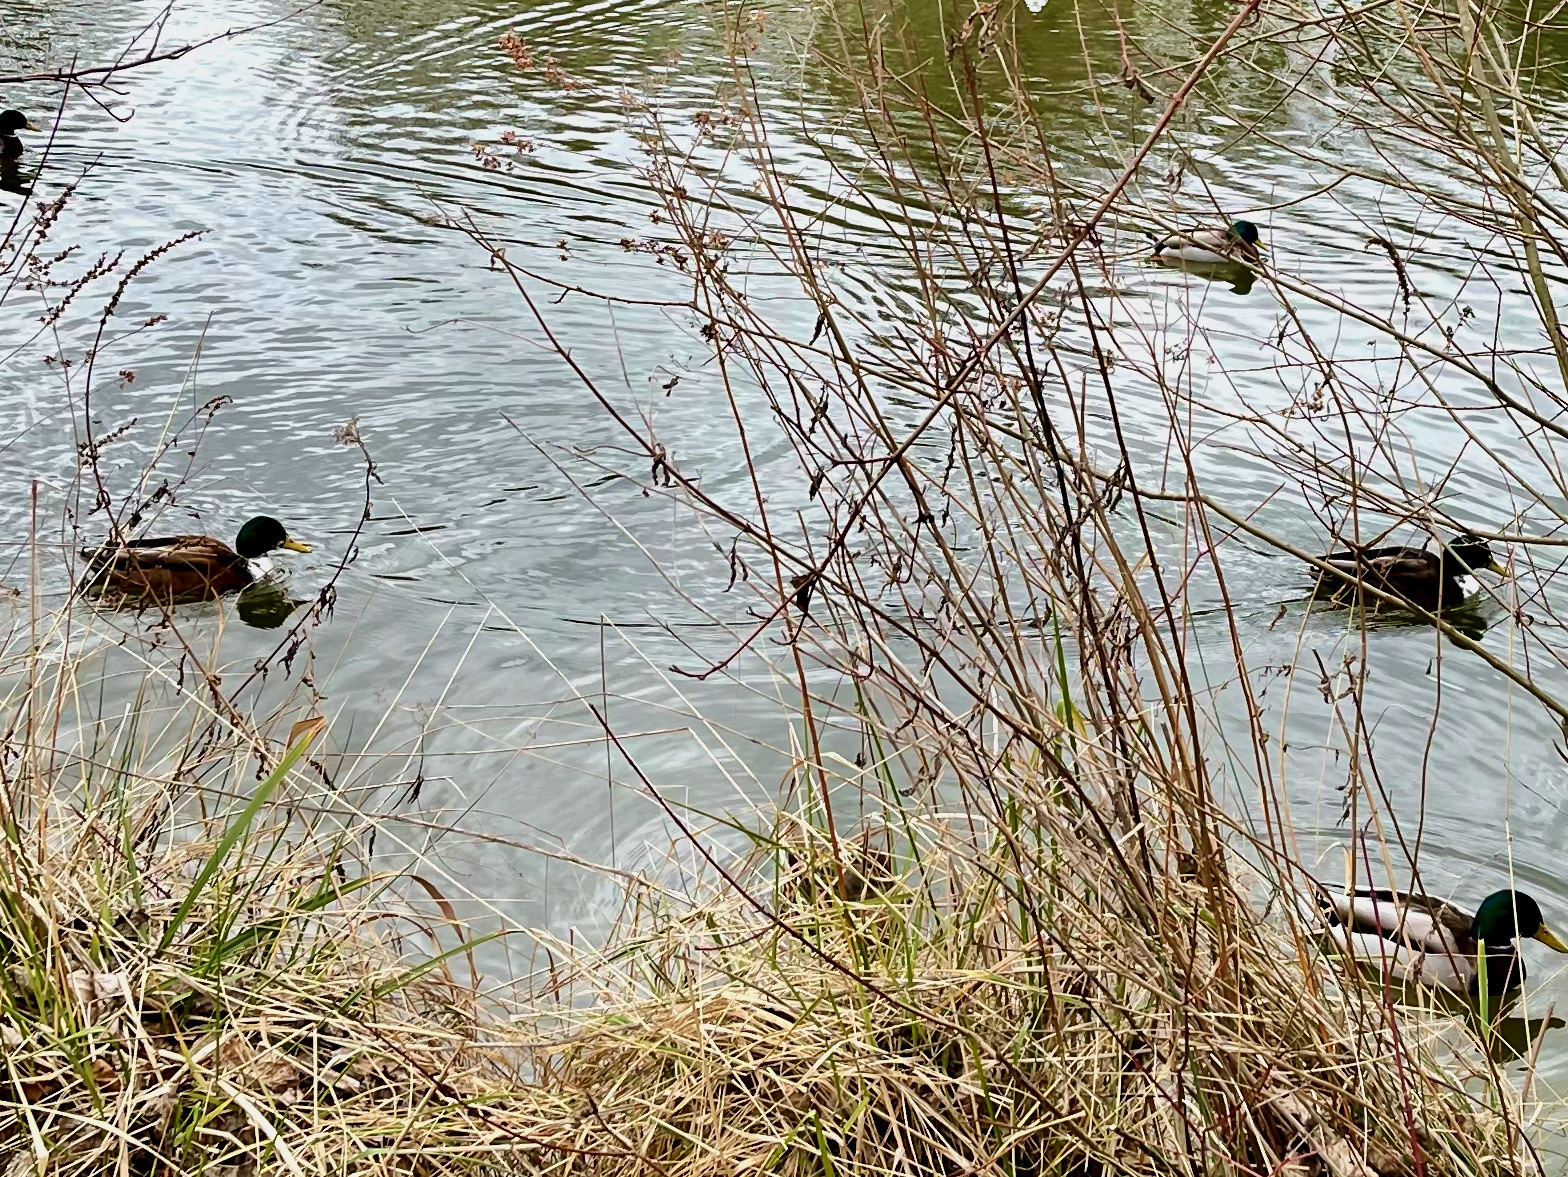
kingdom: Animalia
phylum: Chordata
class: Aves
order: Anseriformes
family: Anatidae
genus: Anas
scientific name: Anas platyrhynchos
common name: Mallard
